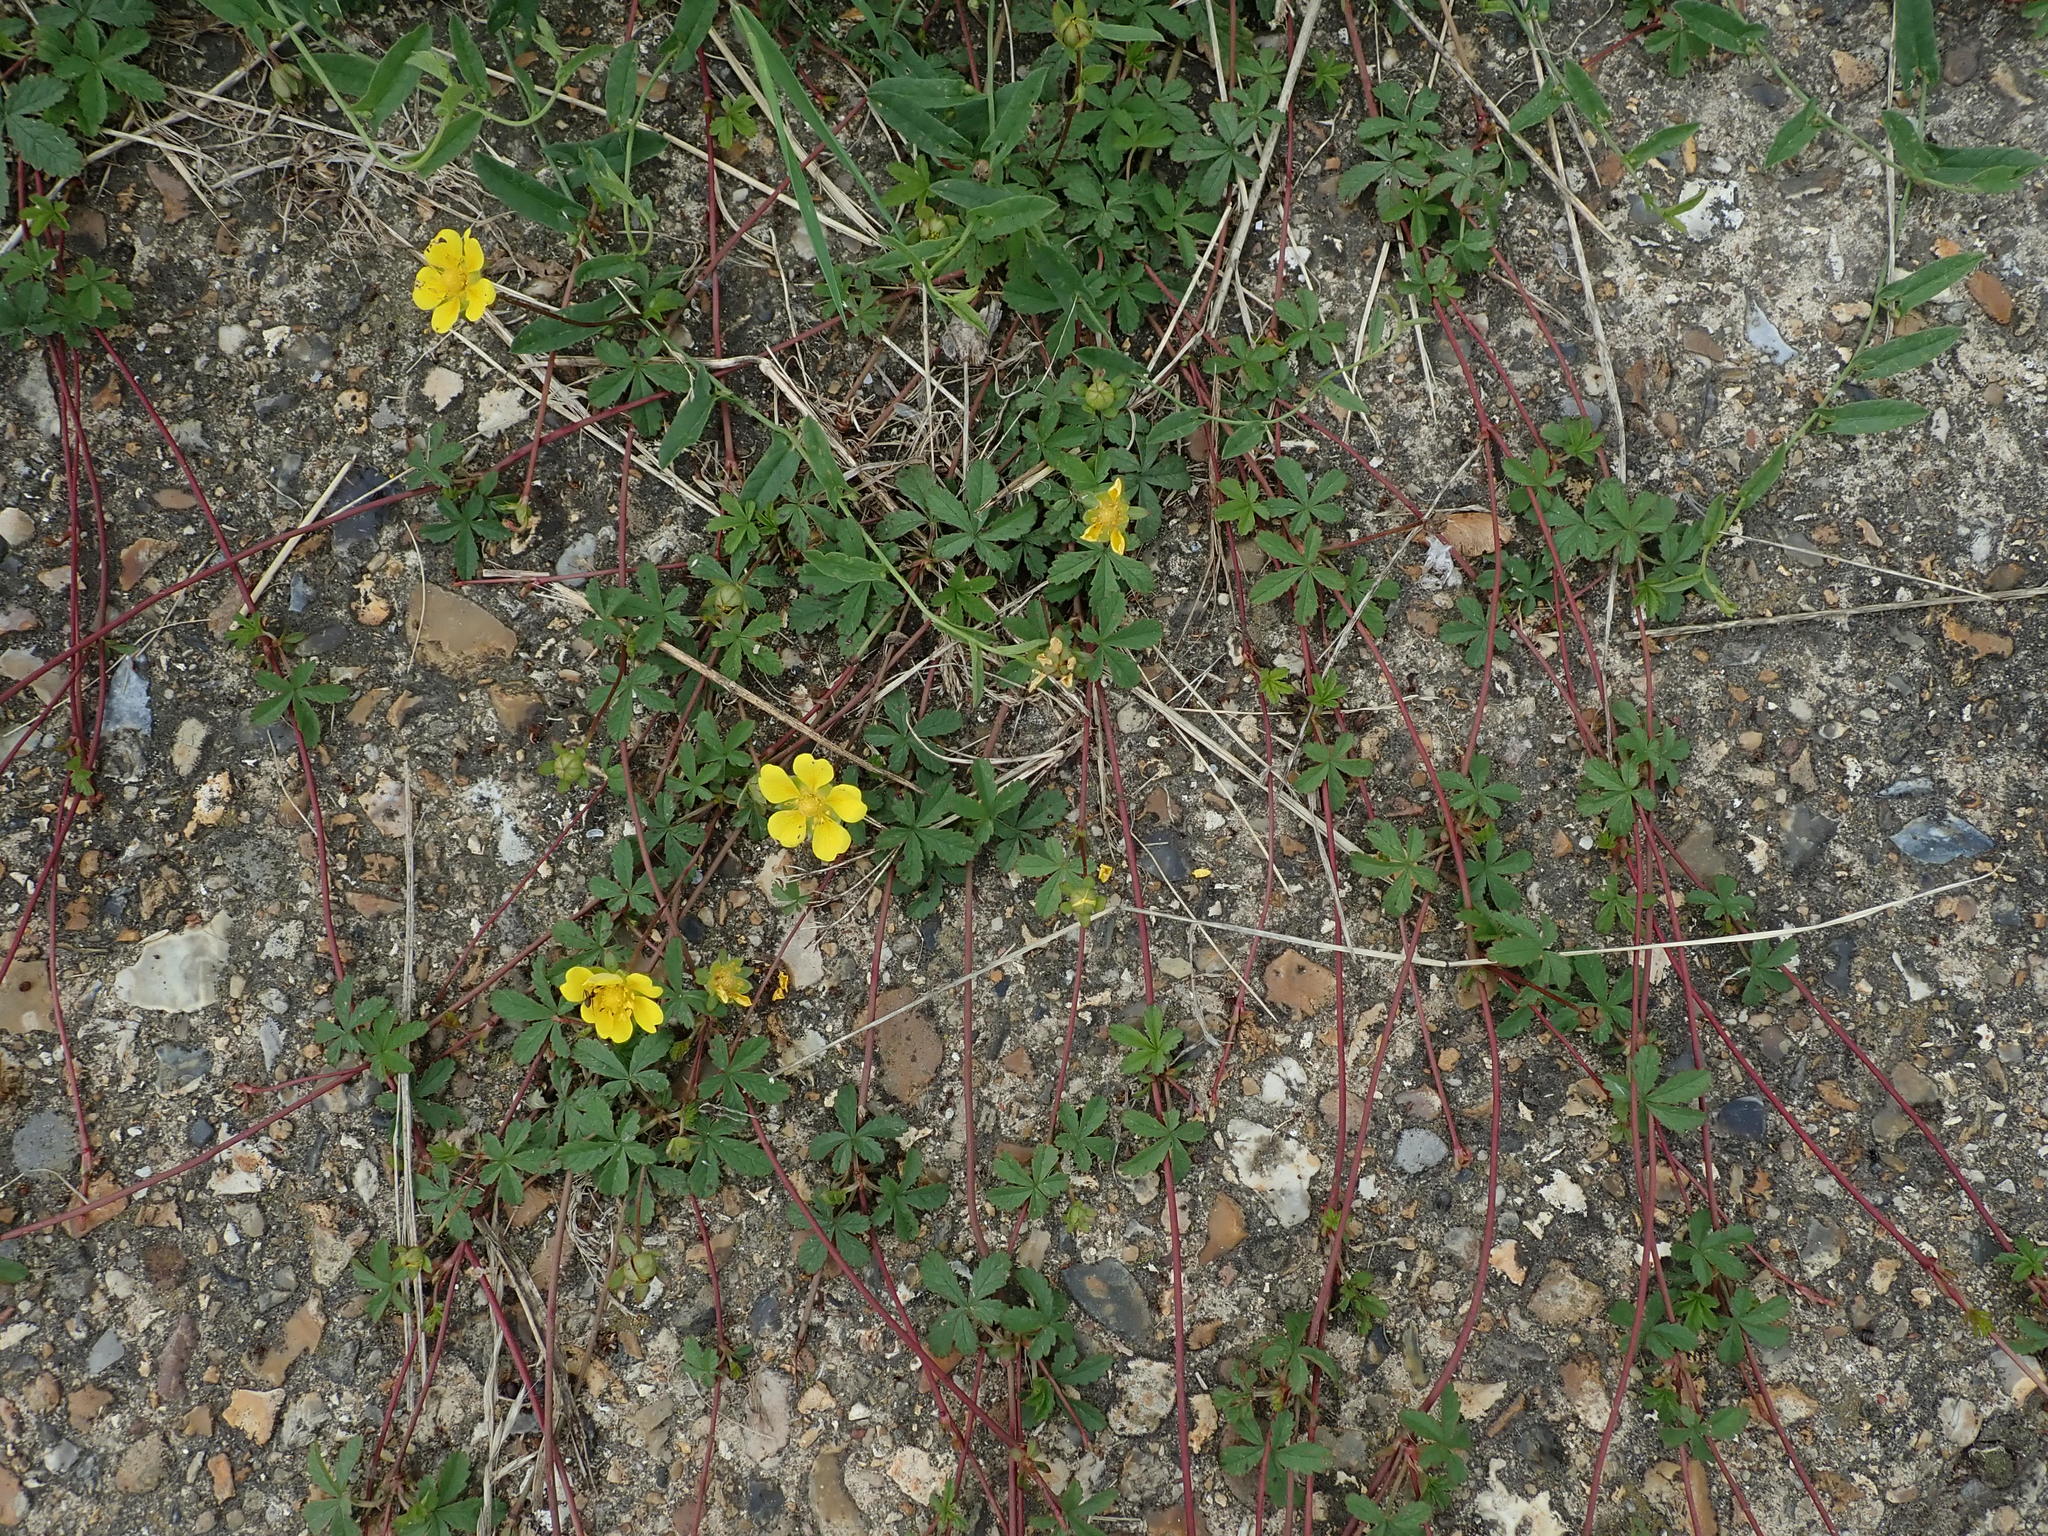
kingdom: Plantae
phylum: Tracheophyta
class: Magnoliopsida
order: Rosales
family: Rosaceae
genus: Potentilla
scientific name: Potentilla reptans
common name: Creeping cinquefoil
